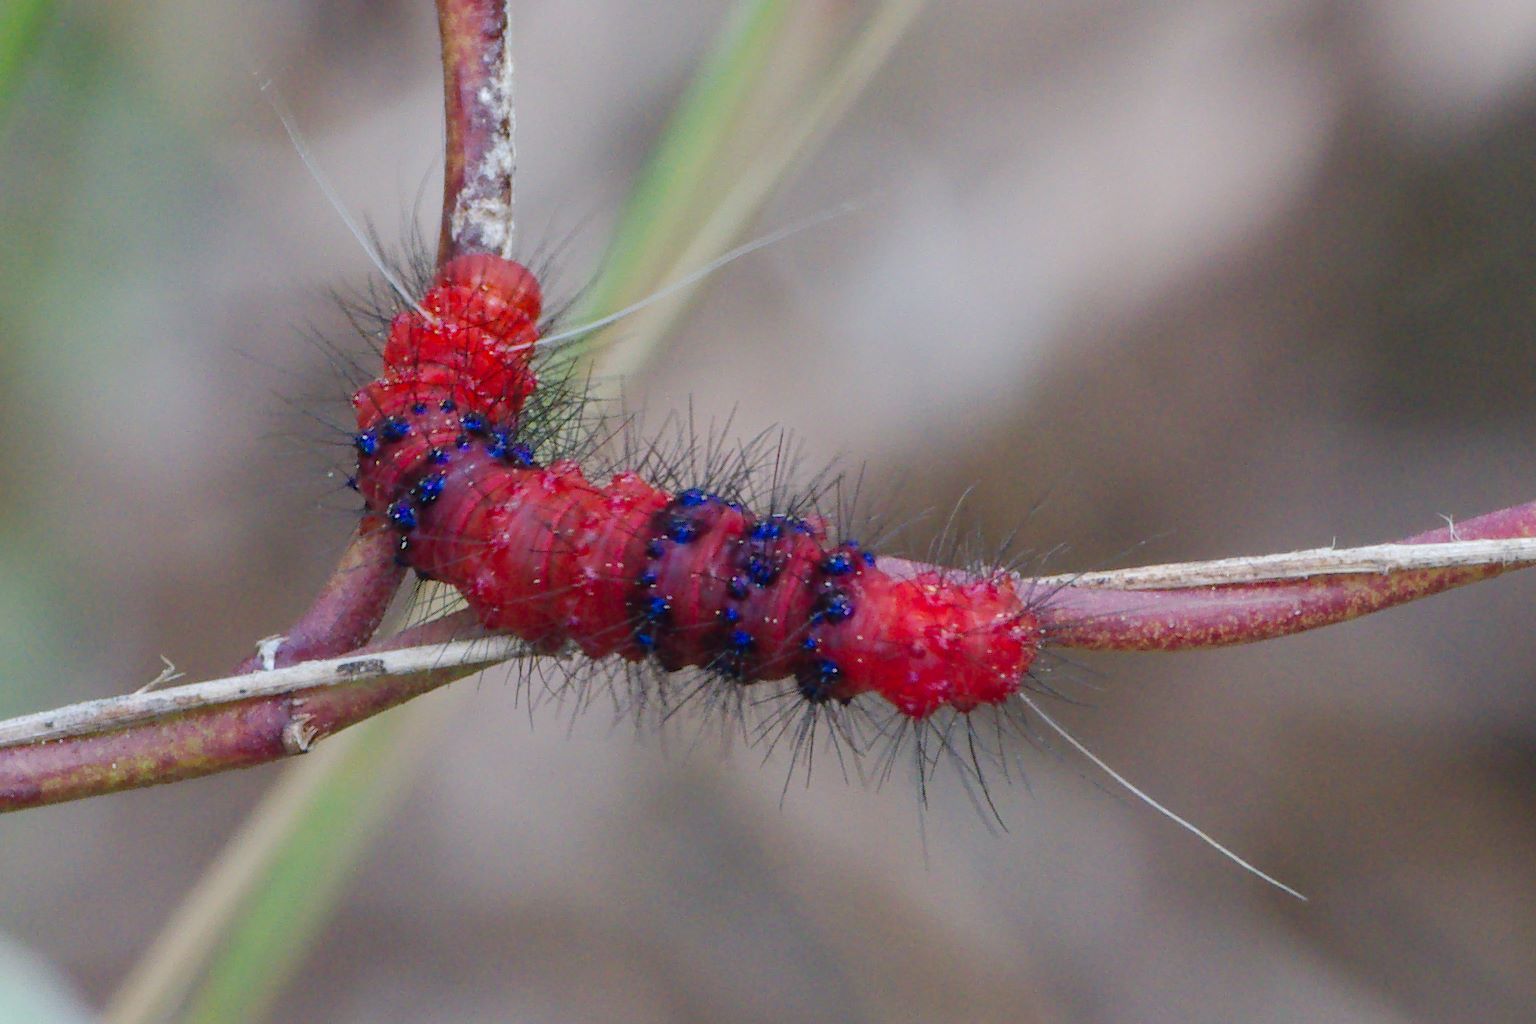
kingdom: Animalia
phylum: Arthropoda
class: Insecta
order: Lepidoptera
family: Erebidae
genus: Composia
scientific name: Composia fidelissima
